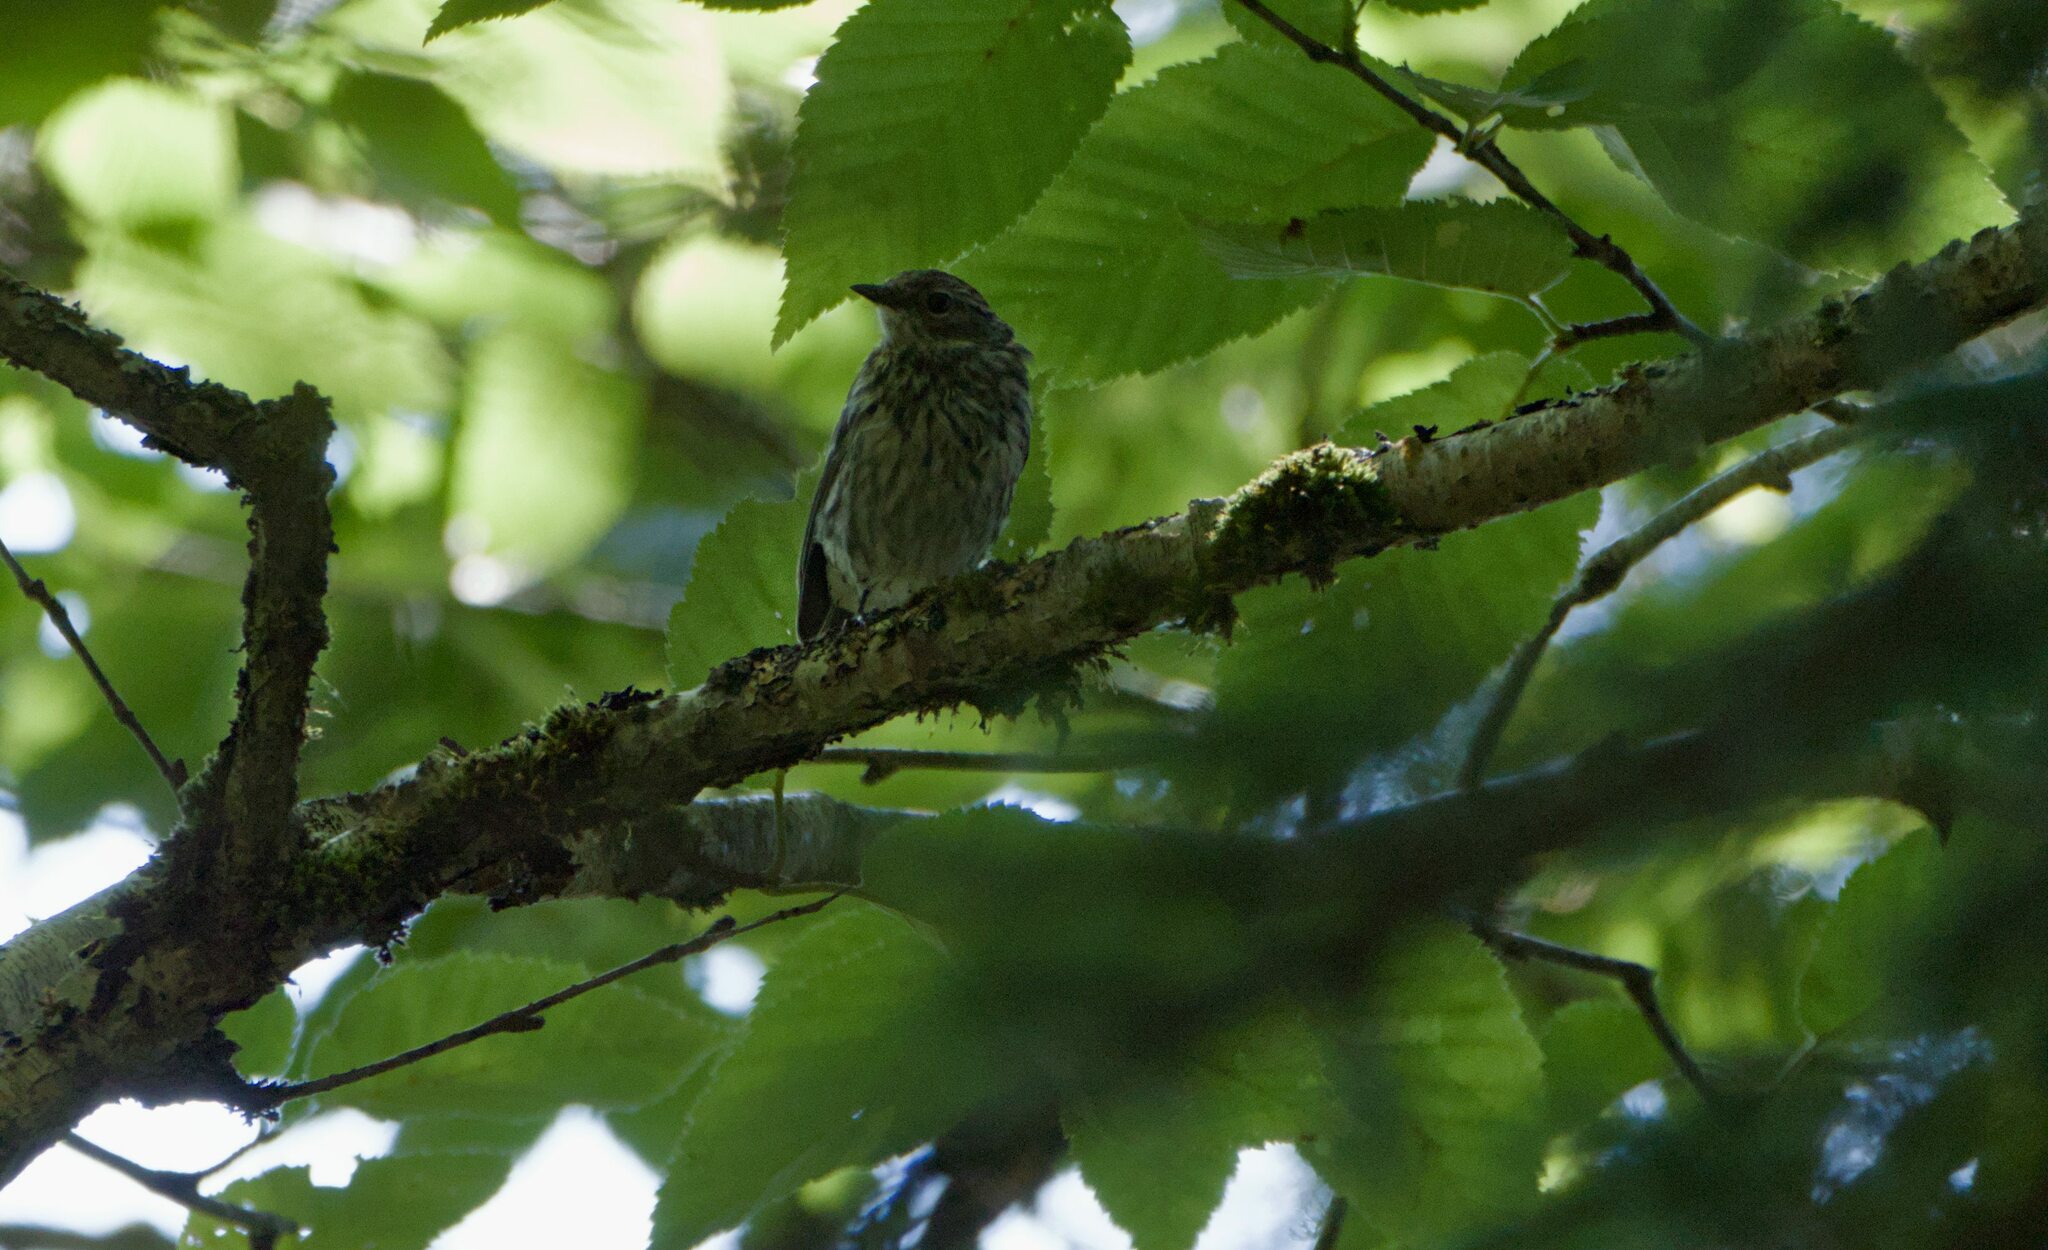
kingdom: Animalia
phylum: Chordata
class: Aves
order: Passeriformes
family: Parulidae
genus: Setophaga
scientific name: Setophaga coronata
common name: Myrtle warbler
